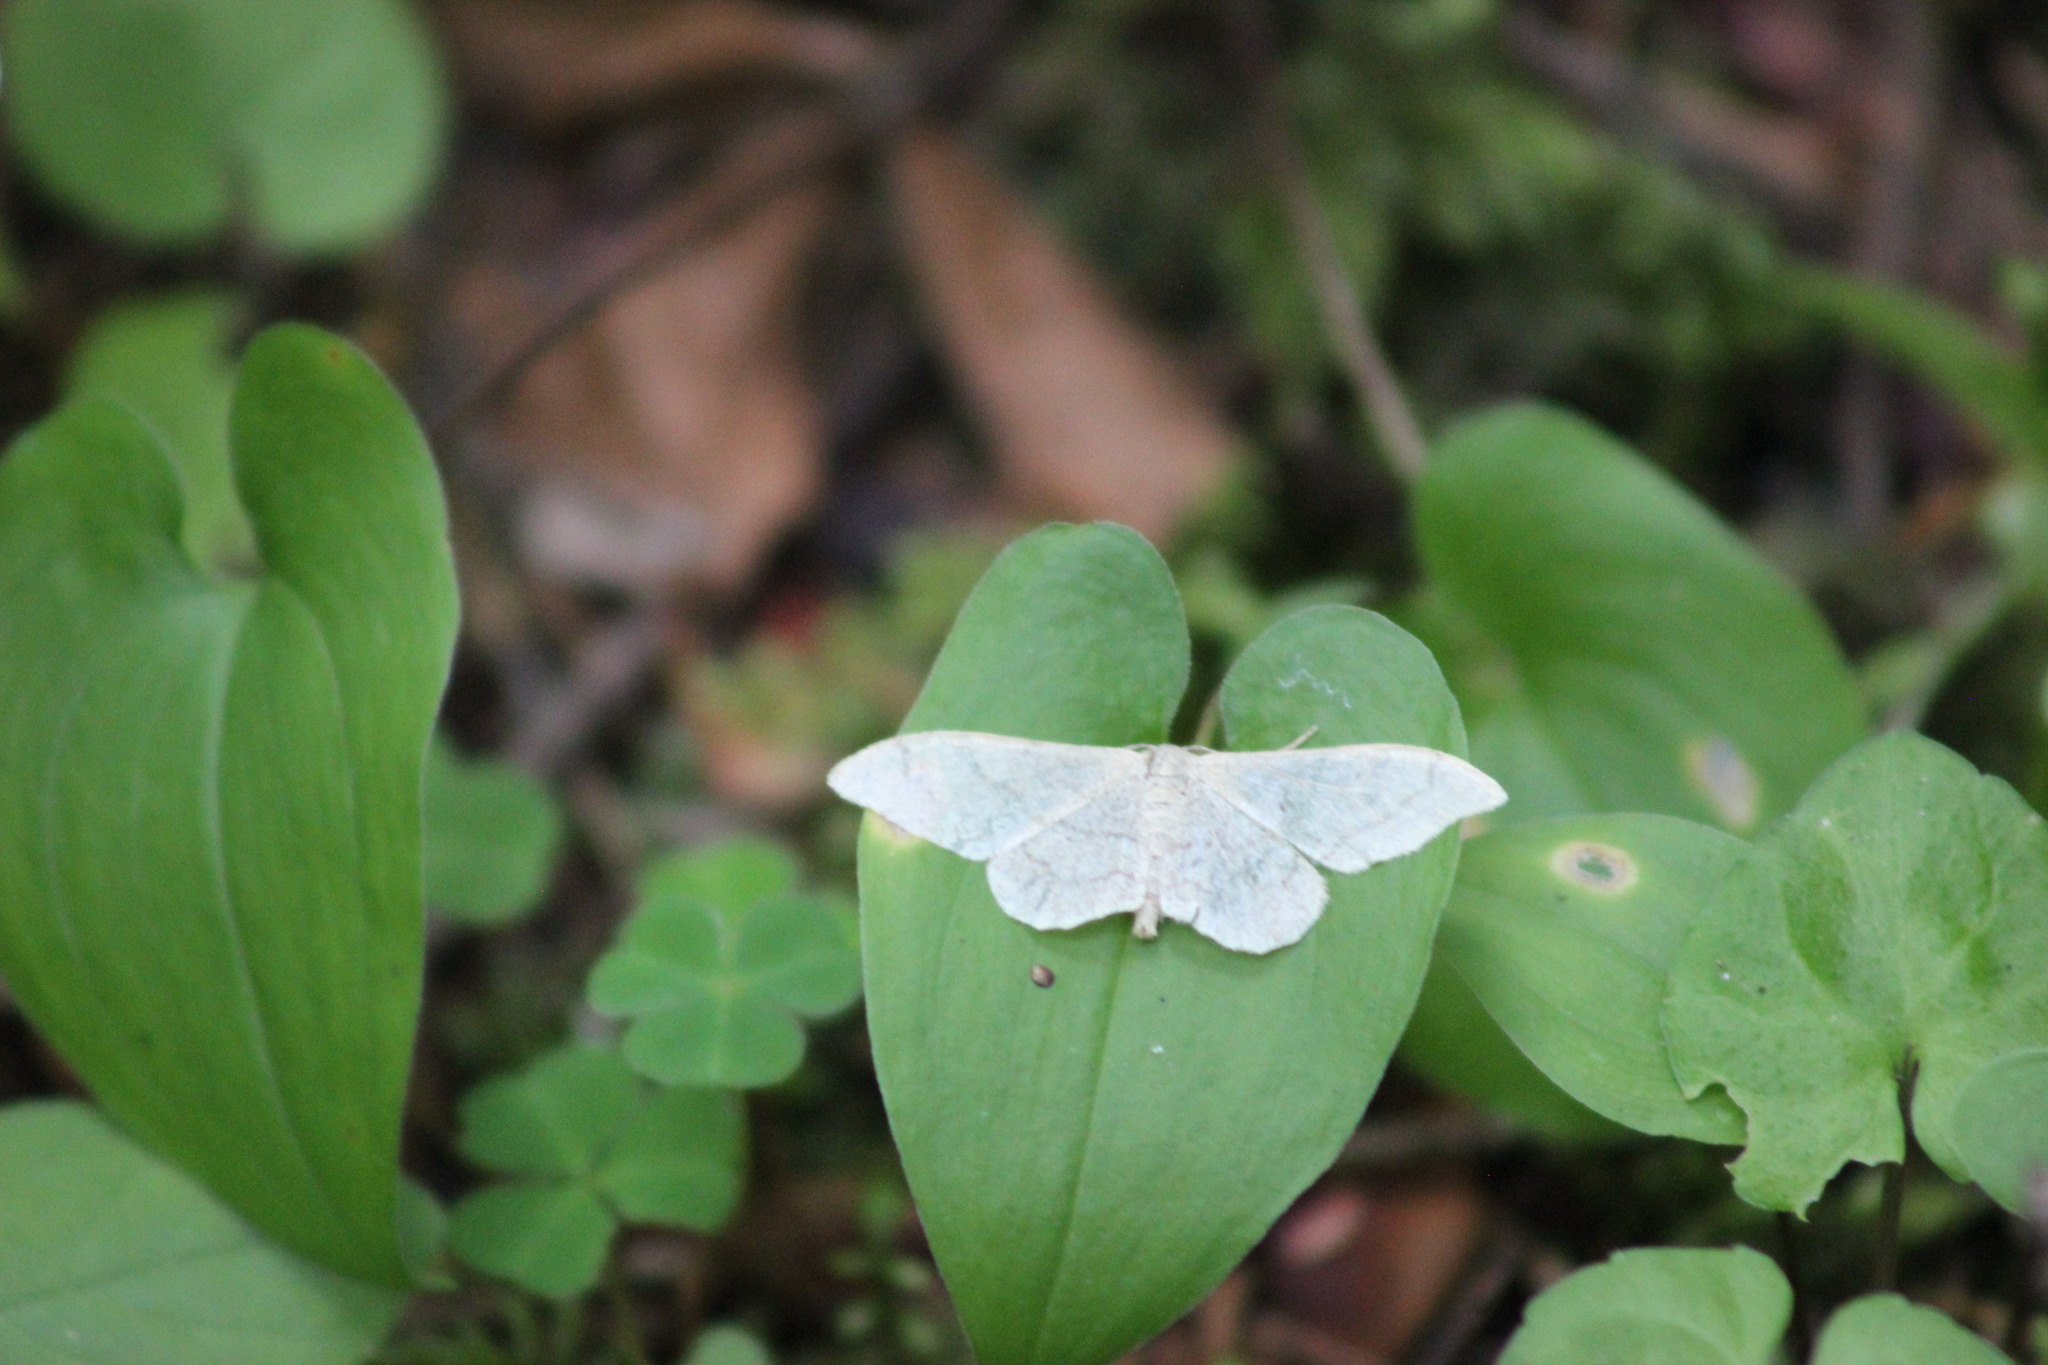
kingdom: Animalia
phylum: Arthropoda
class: Insecta
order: Lepidoptera
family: Geometridae
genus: Idaea
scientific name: Idaea aversata
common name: Riband wave
